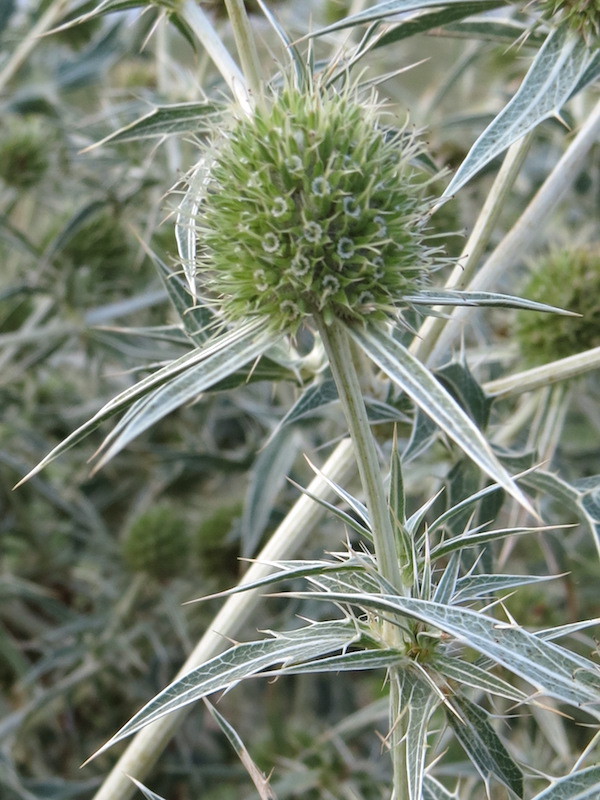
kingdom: Plantae
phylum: Tracheophyta
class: Magnoliopsida
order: Apiales
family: Apiaceae
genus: Eryngium
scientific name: Eryngium campestre
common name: Field eryngo
